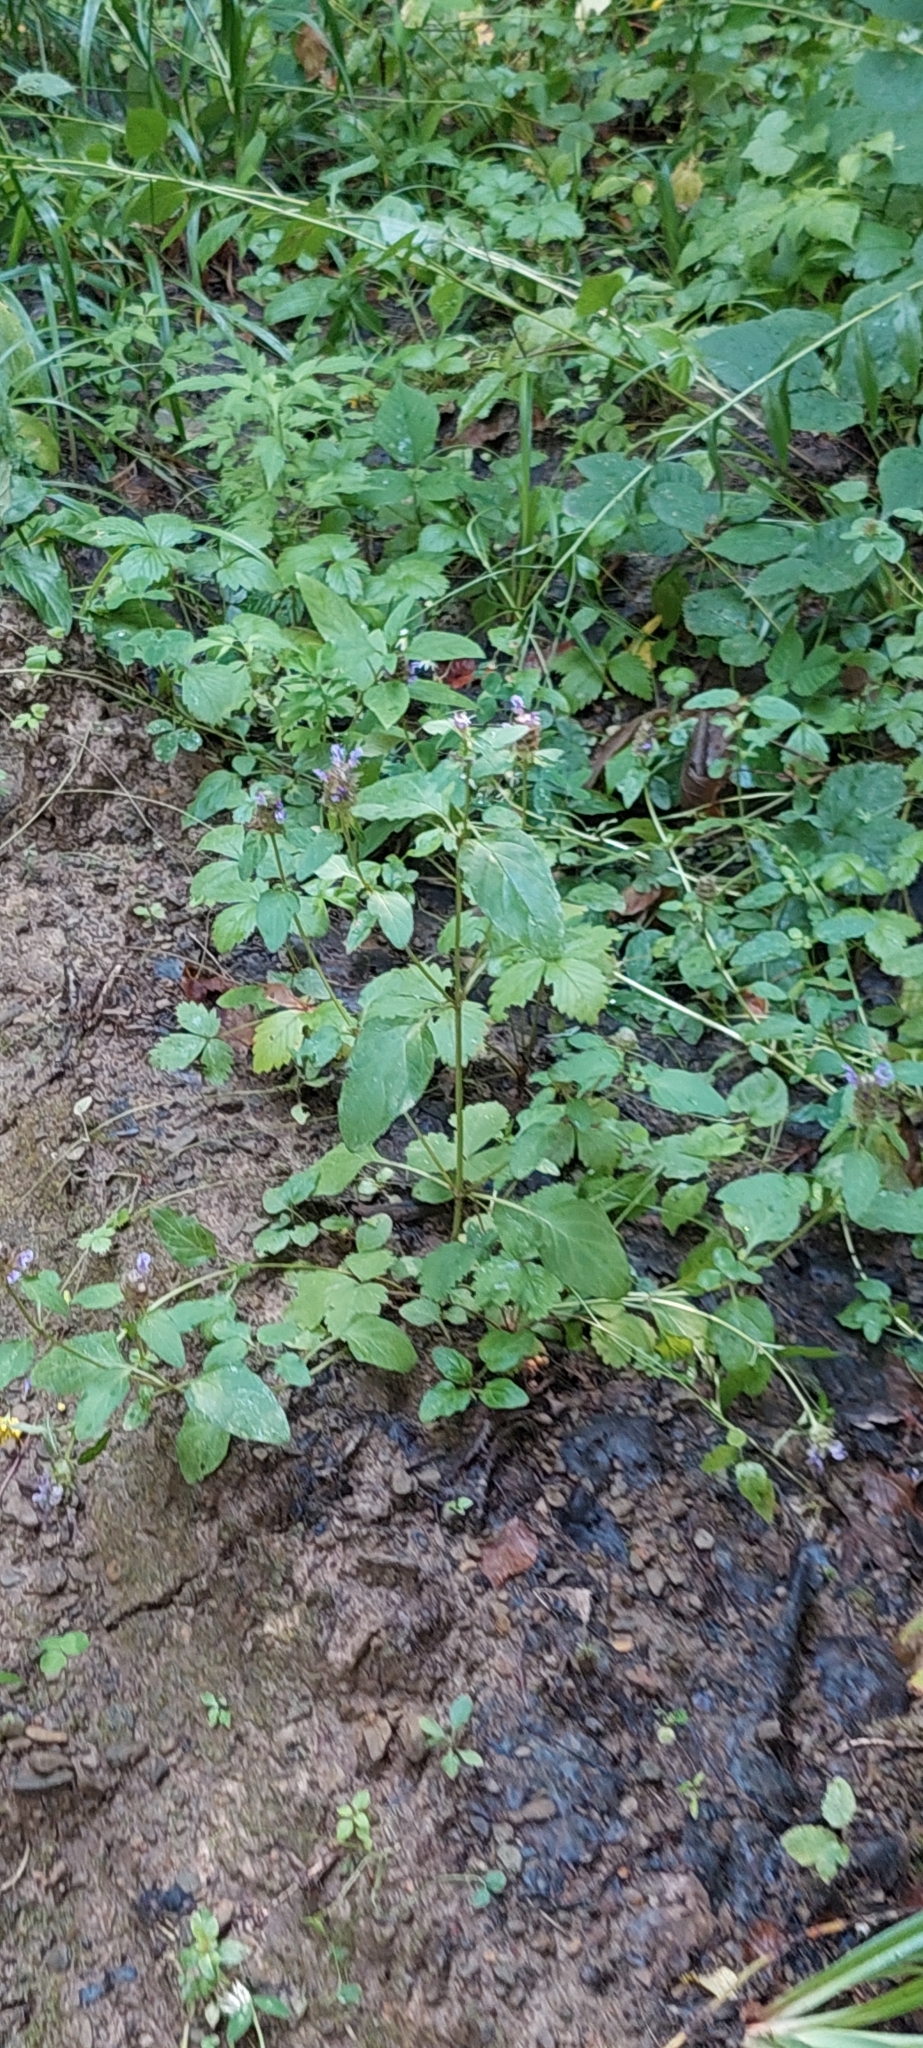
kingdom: Plantae
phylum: Tracheophyta
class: Magnoliopsida
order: Lamiales
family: Lamiaceae
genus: Prunella
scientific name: Prunella vulgaris
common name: Heal-all
